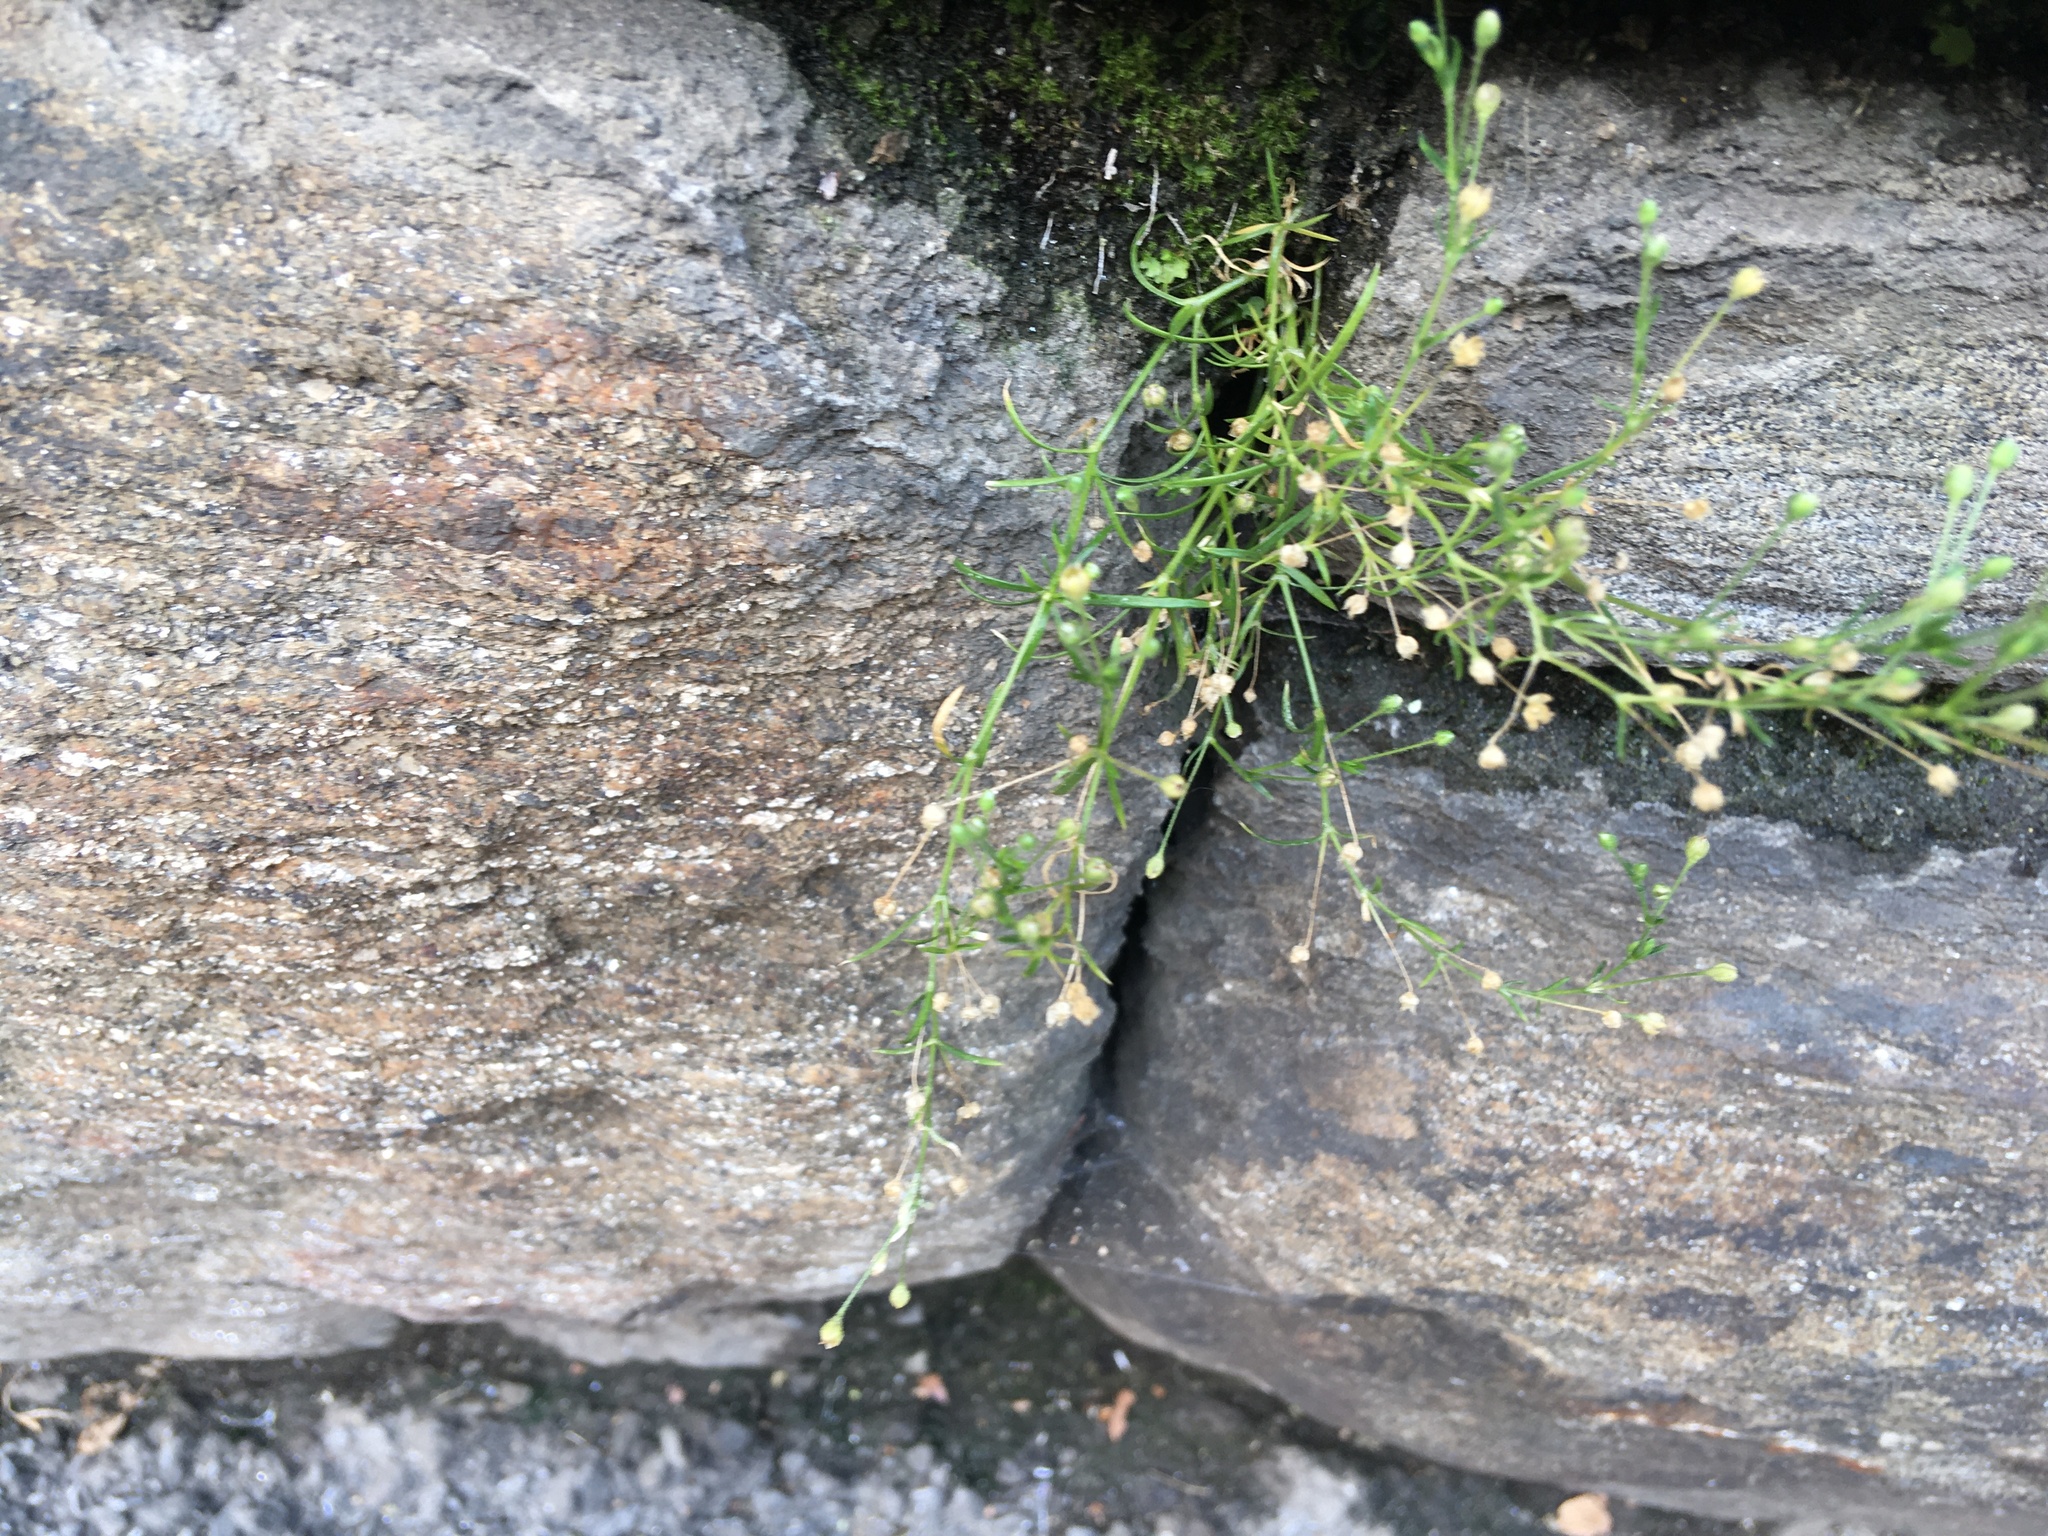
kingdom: Plantae
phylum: Tracheophyta
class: Magnoliopsida
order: Caryophyllales
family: Caryophyllaceae
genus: Sagina
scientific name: Sagina japonica
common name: Japanese pearlwort
